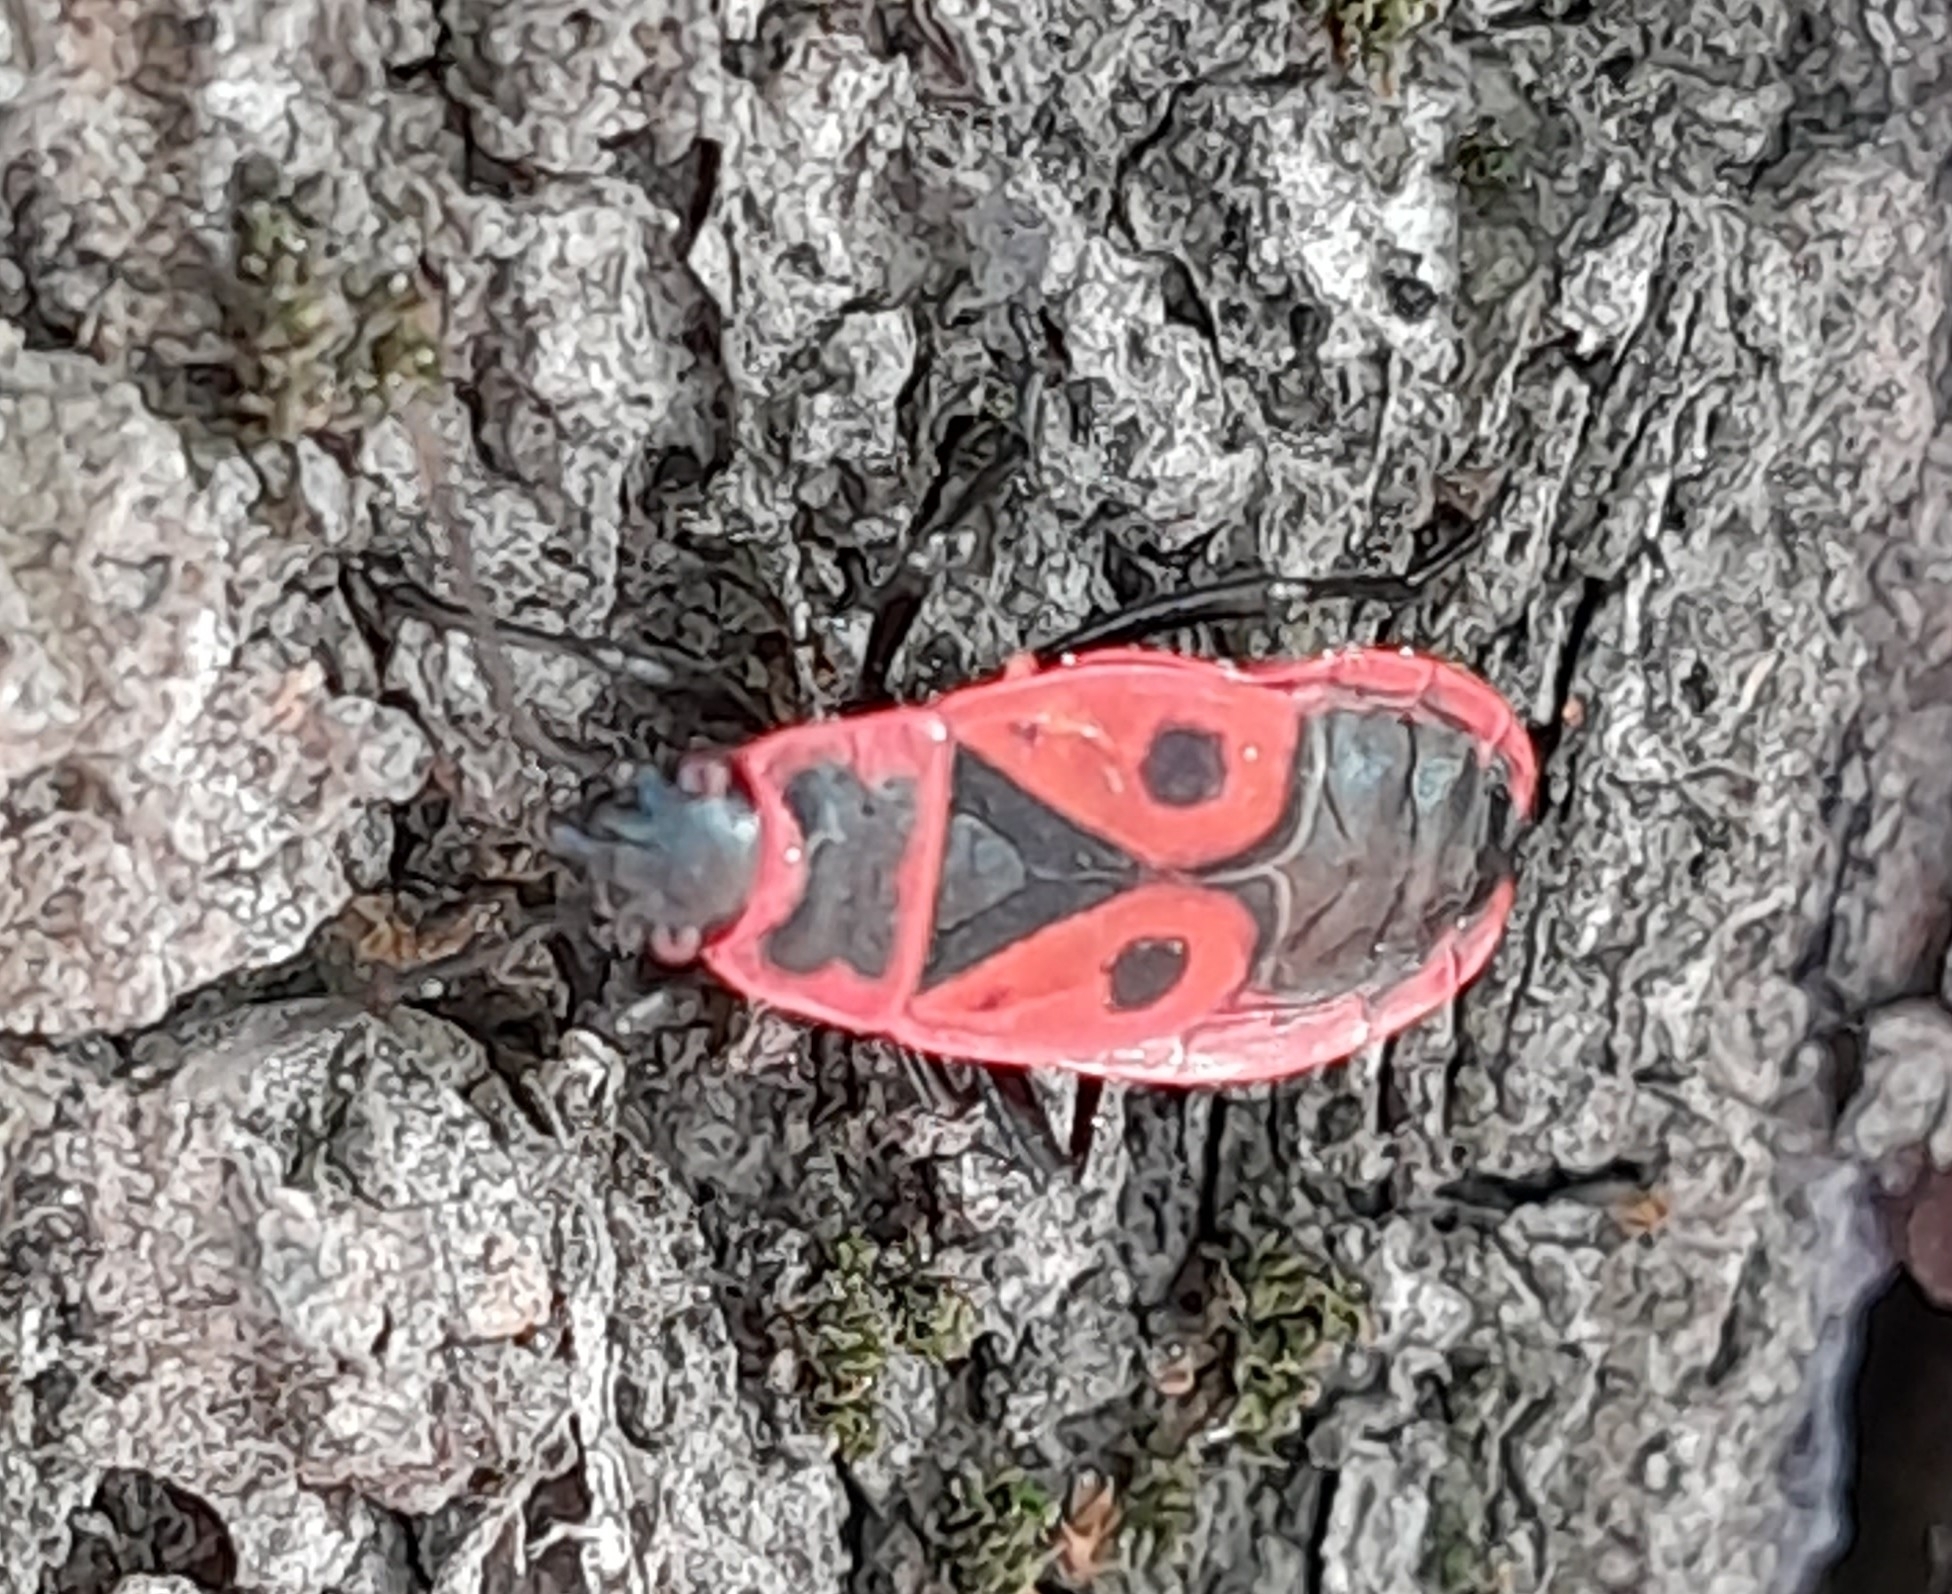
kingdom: Animalia
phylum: Arthropoda
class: Insecta
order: Hemiptera
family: Pyrrhocoridae
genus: Pyrrhocoris
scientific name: Pyrrhocoris apterus
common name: Firebug
